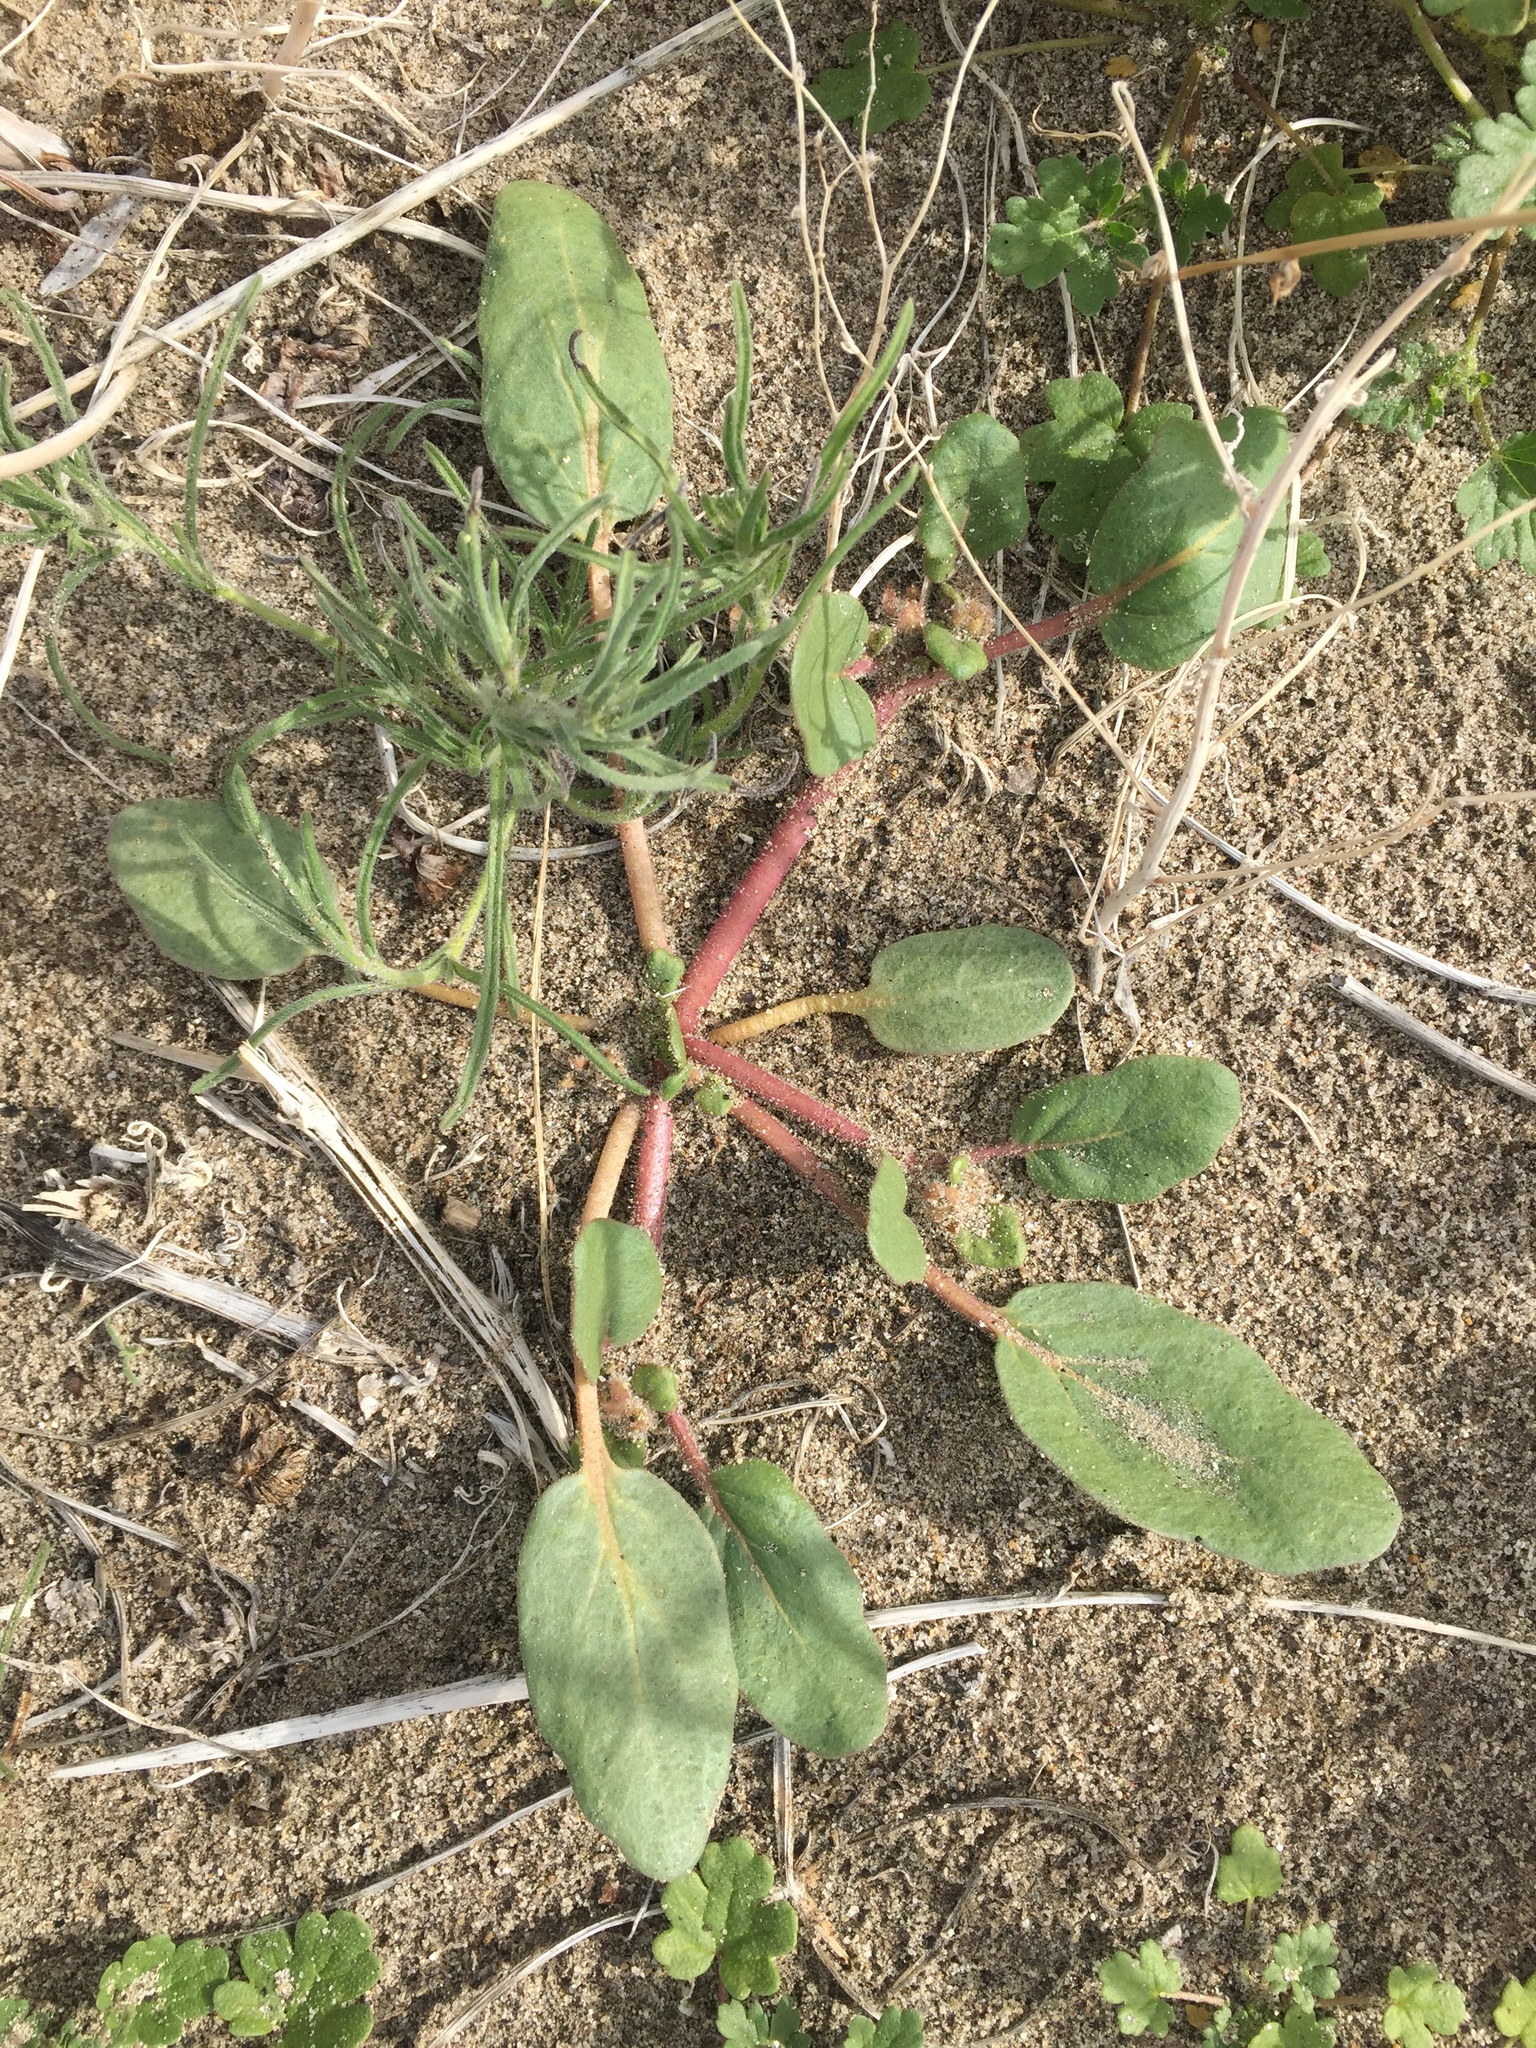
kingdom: Plantae
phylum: Tracheophyta
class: Magnoliopsida
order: Caryophyllales
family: Nyctaginaceae
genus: Abronia
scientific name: Abronia villosa
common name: Desert sand-verbena
